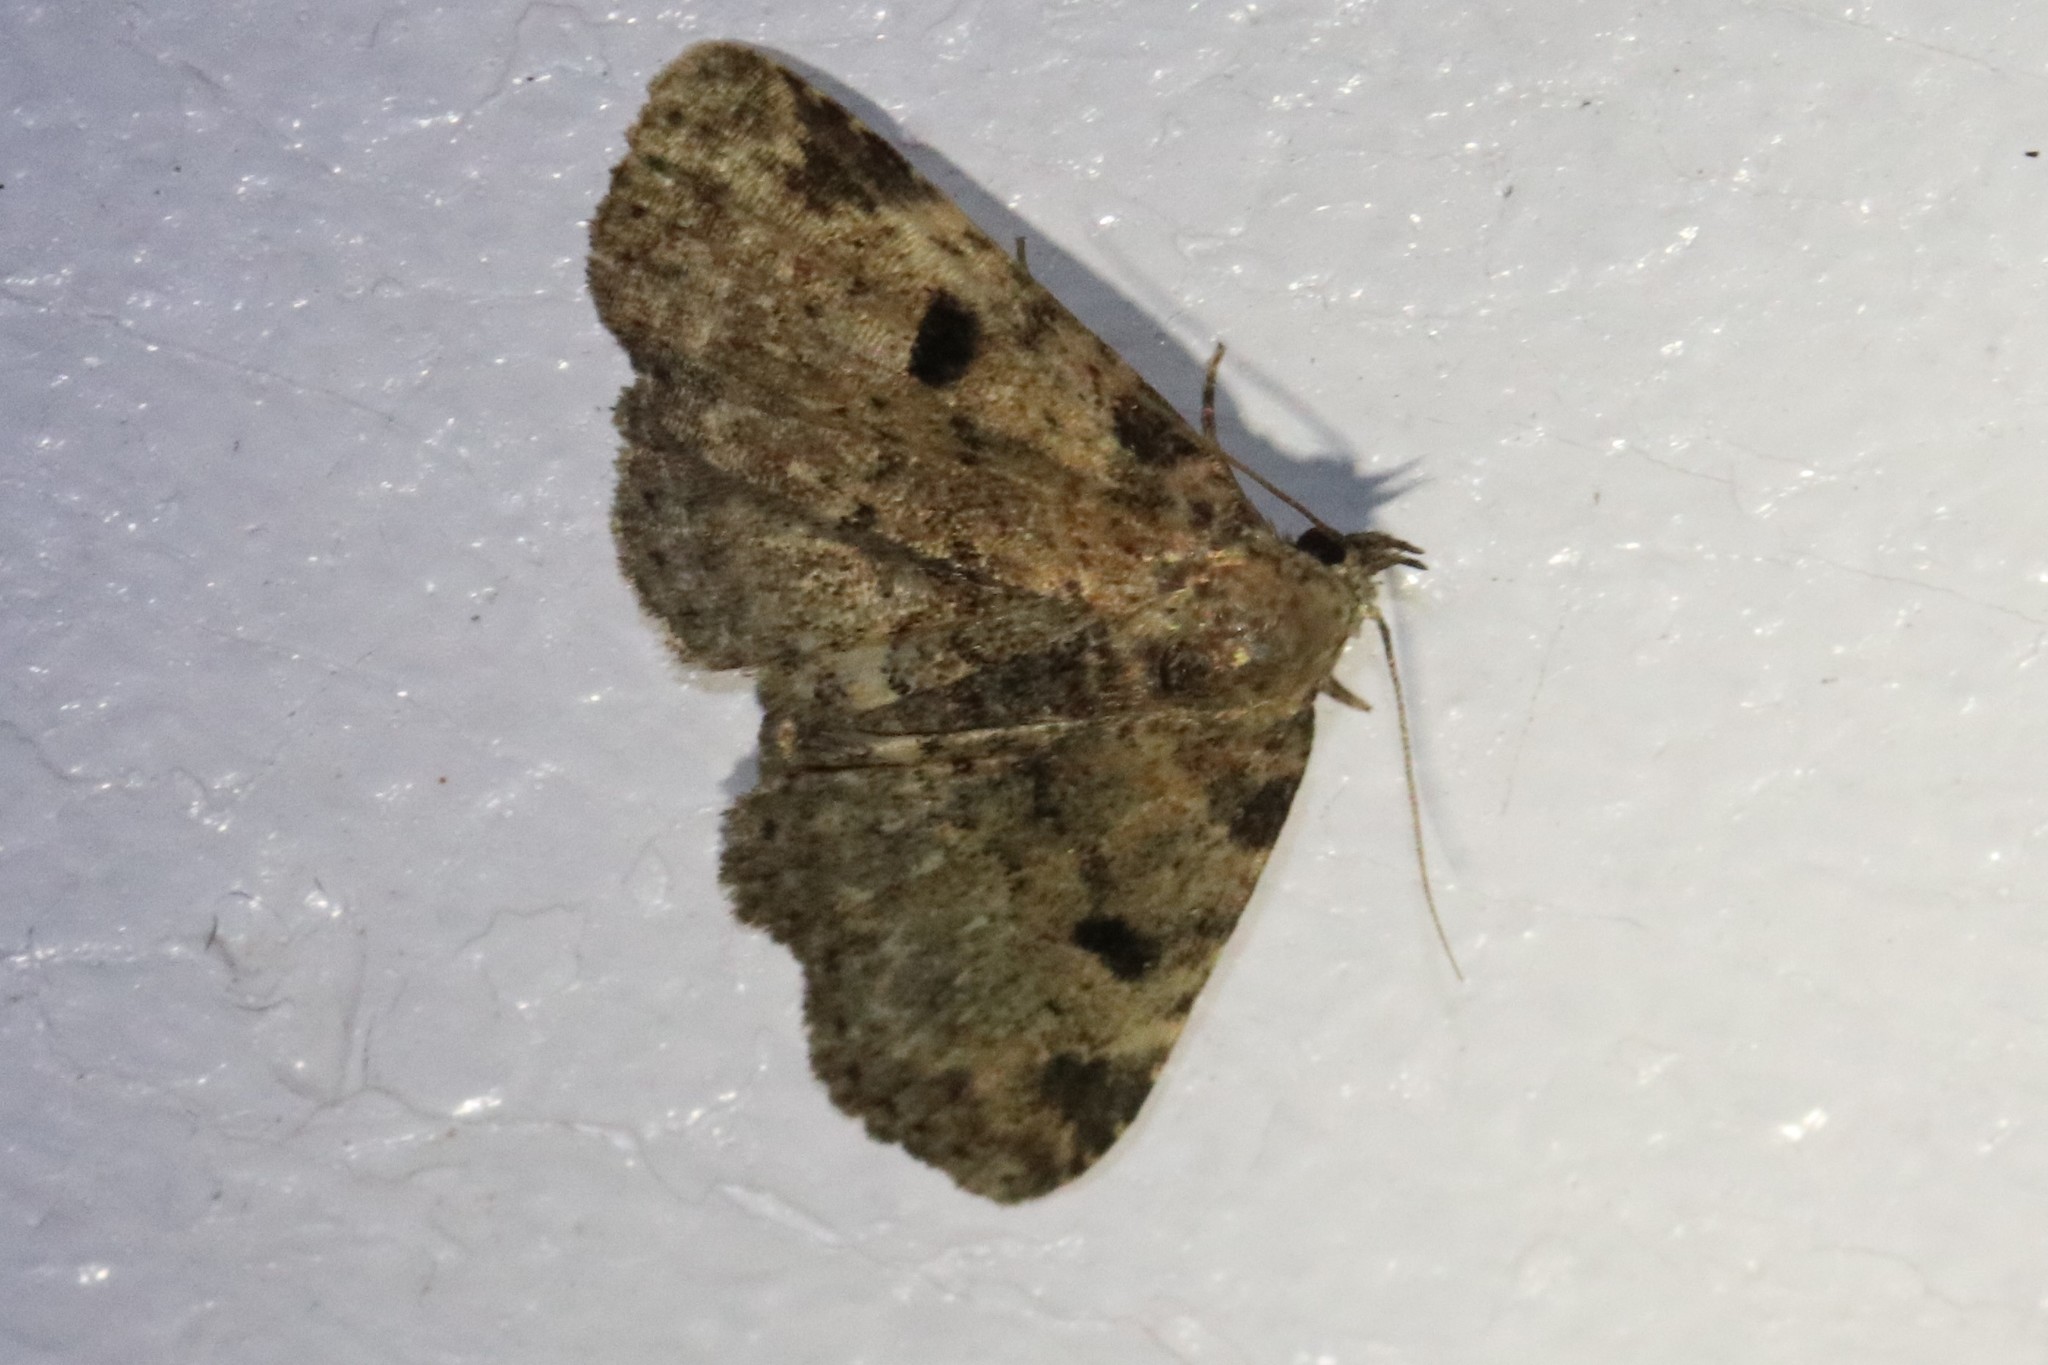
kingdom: Animalia
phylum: Arthropoda
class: Insecta
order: Lepidoptera
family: Erebidae
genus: Metalectra
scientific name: Metalectra quadrisignata
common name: Four-spotted fungus moth
